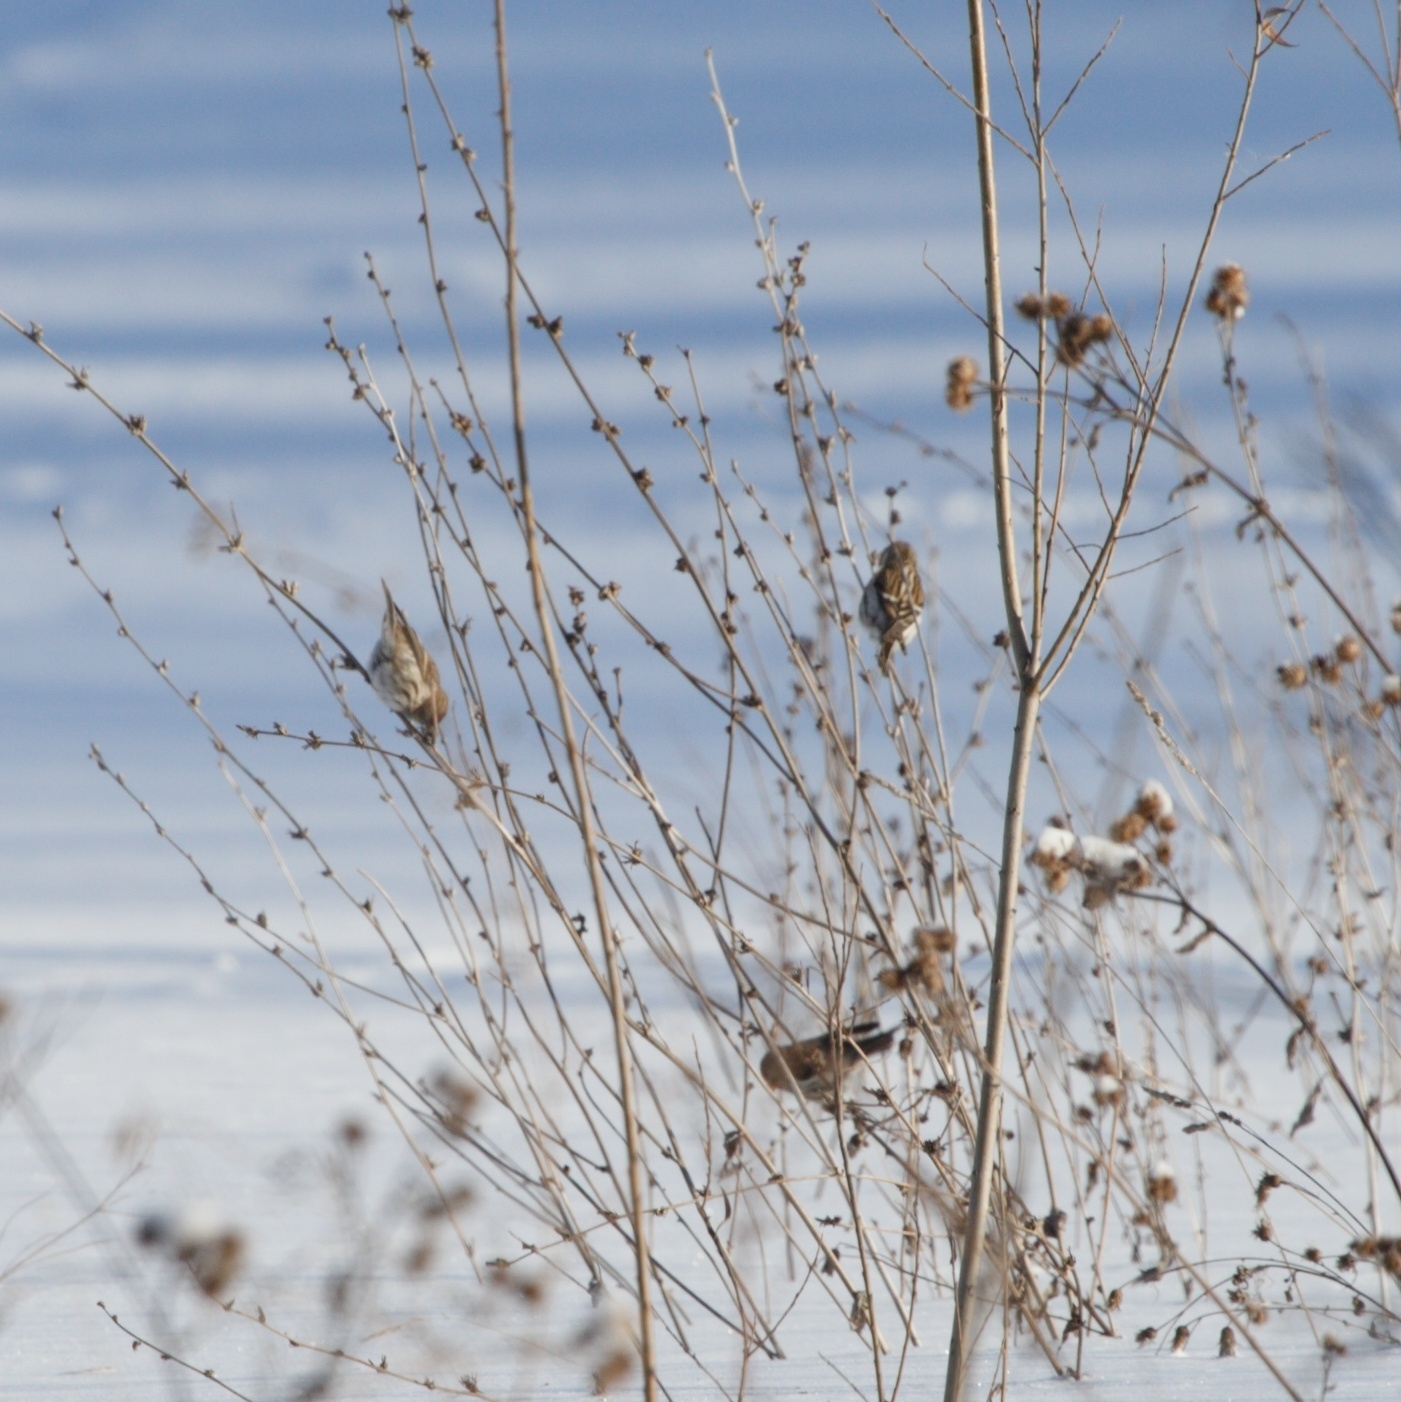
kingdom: Animalia
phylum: Chordata
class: Aves
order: Passeriformes
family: Fringillidae
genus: Acanthis
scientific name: Acanthis flammea
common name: Common redpoll
